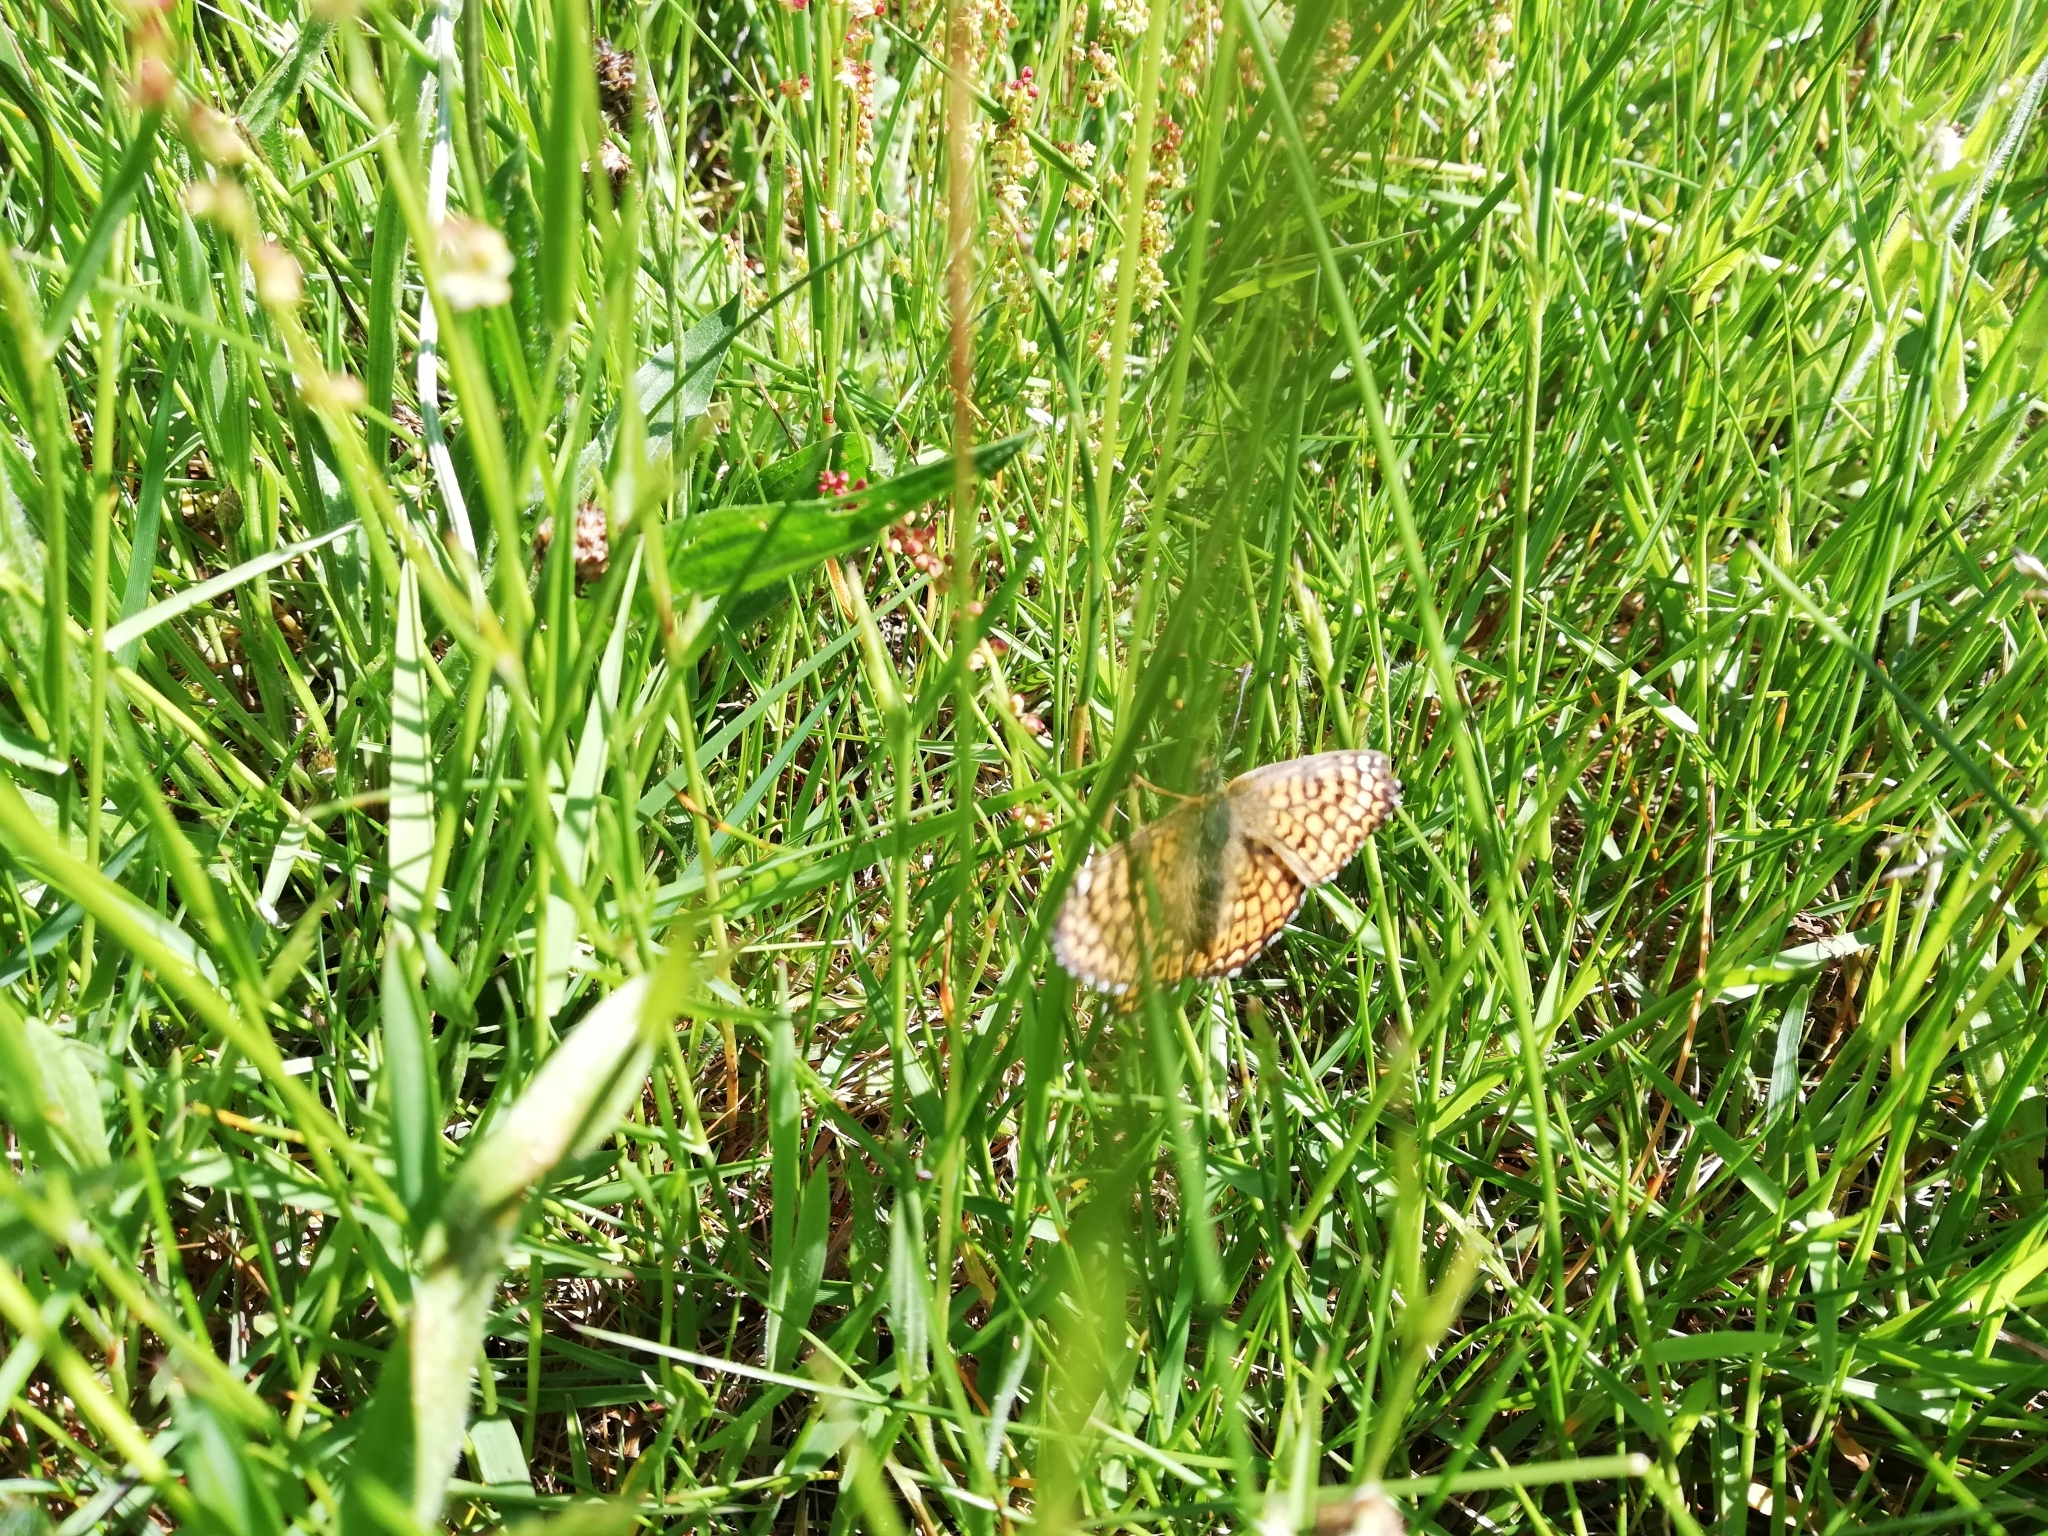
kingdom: Animalia
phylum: Arthropoda
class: Insecta
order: Lepidoptera
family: Nymphalidae
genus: Melitaea
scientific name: Melitaea cinxia
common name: Glanville fritillary
